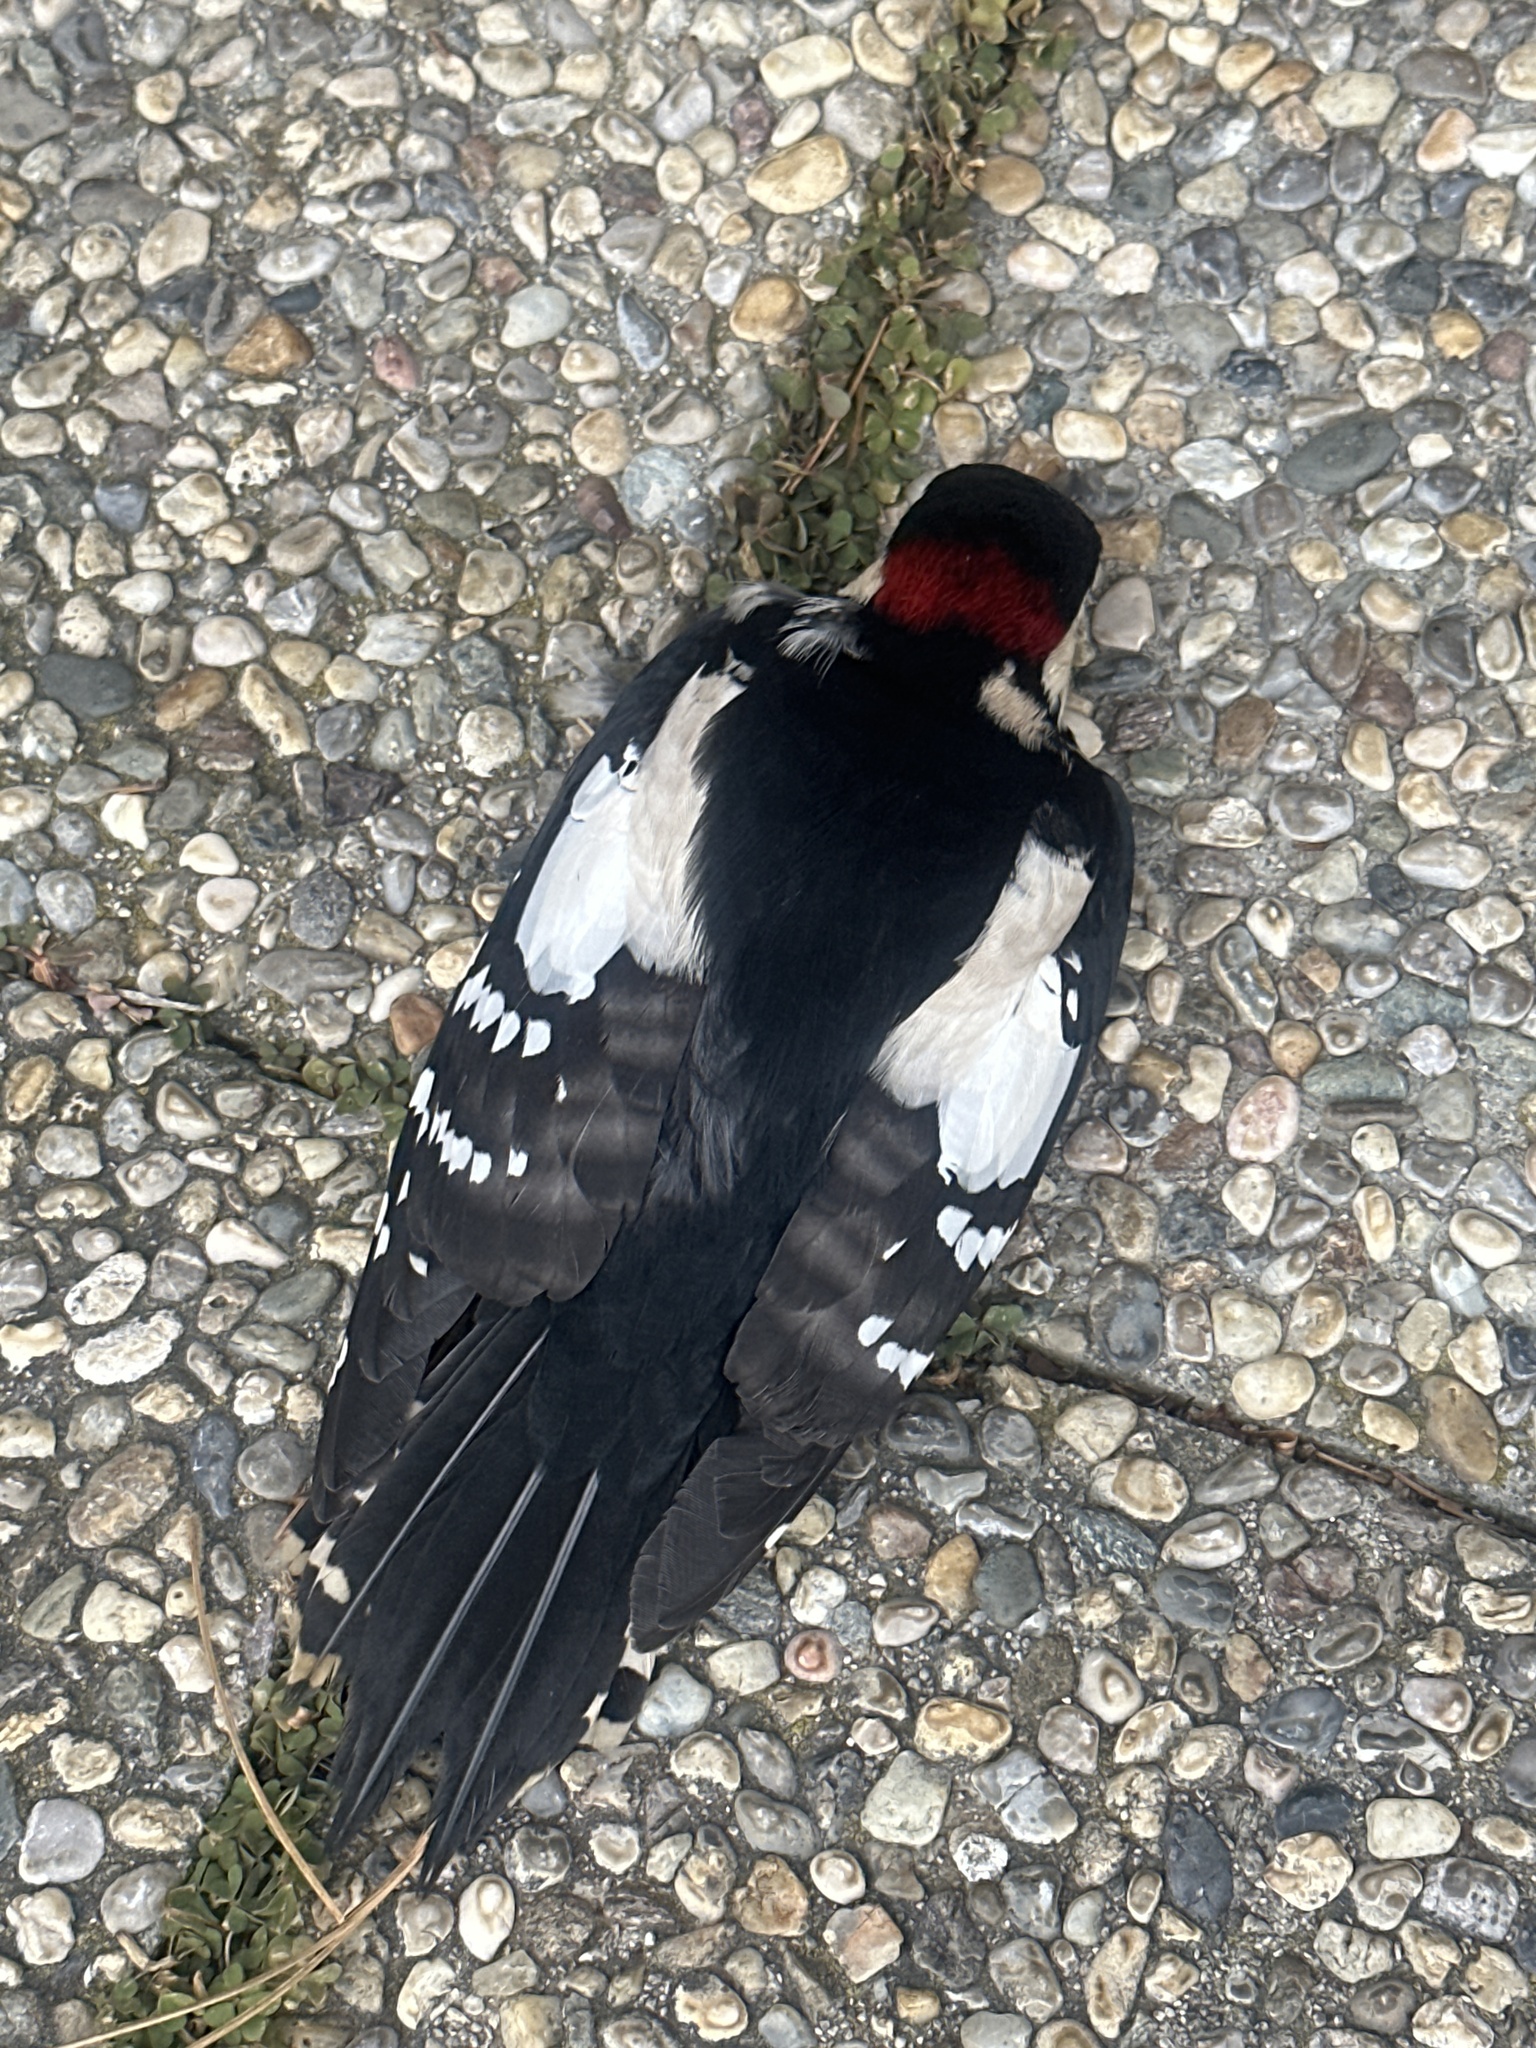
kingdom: Animalia
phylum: Chordata
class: Aves
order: Piciformes
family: Picidae
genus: Dendrocopos
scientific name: Dendrocopos major
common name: Great spotted woodpecker
